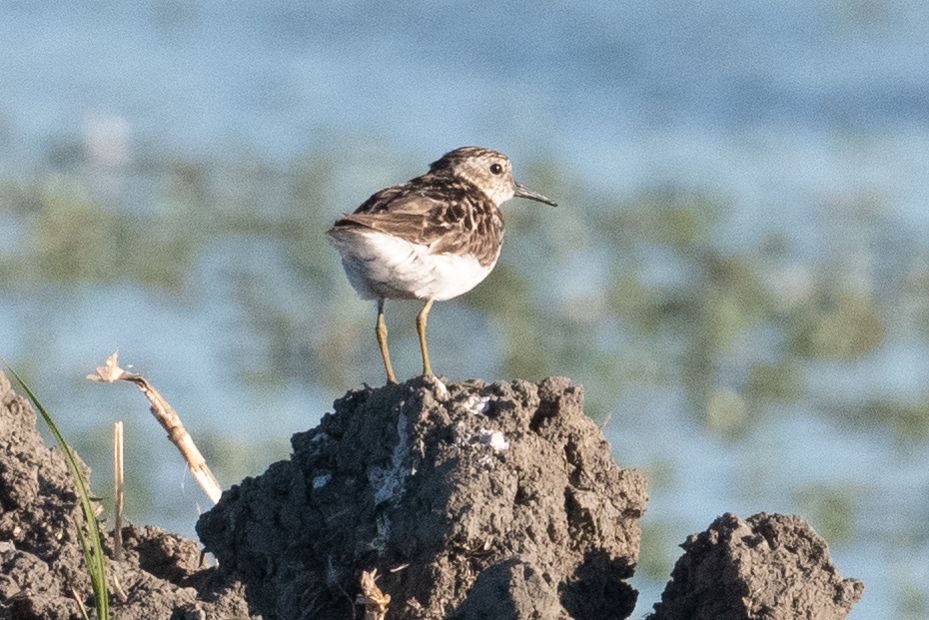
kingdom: Animalia
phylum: Chordata
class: Aves
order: Charadriiformes
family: Scolopacidae
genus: Calidris
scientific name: Calidris minutilla
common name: Least sandpiper
